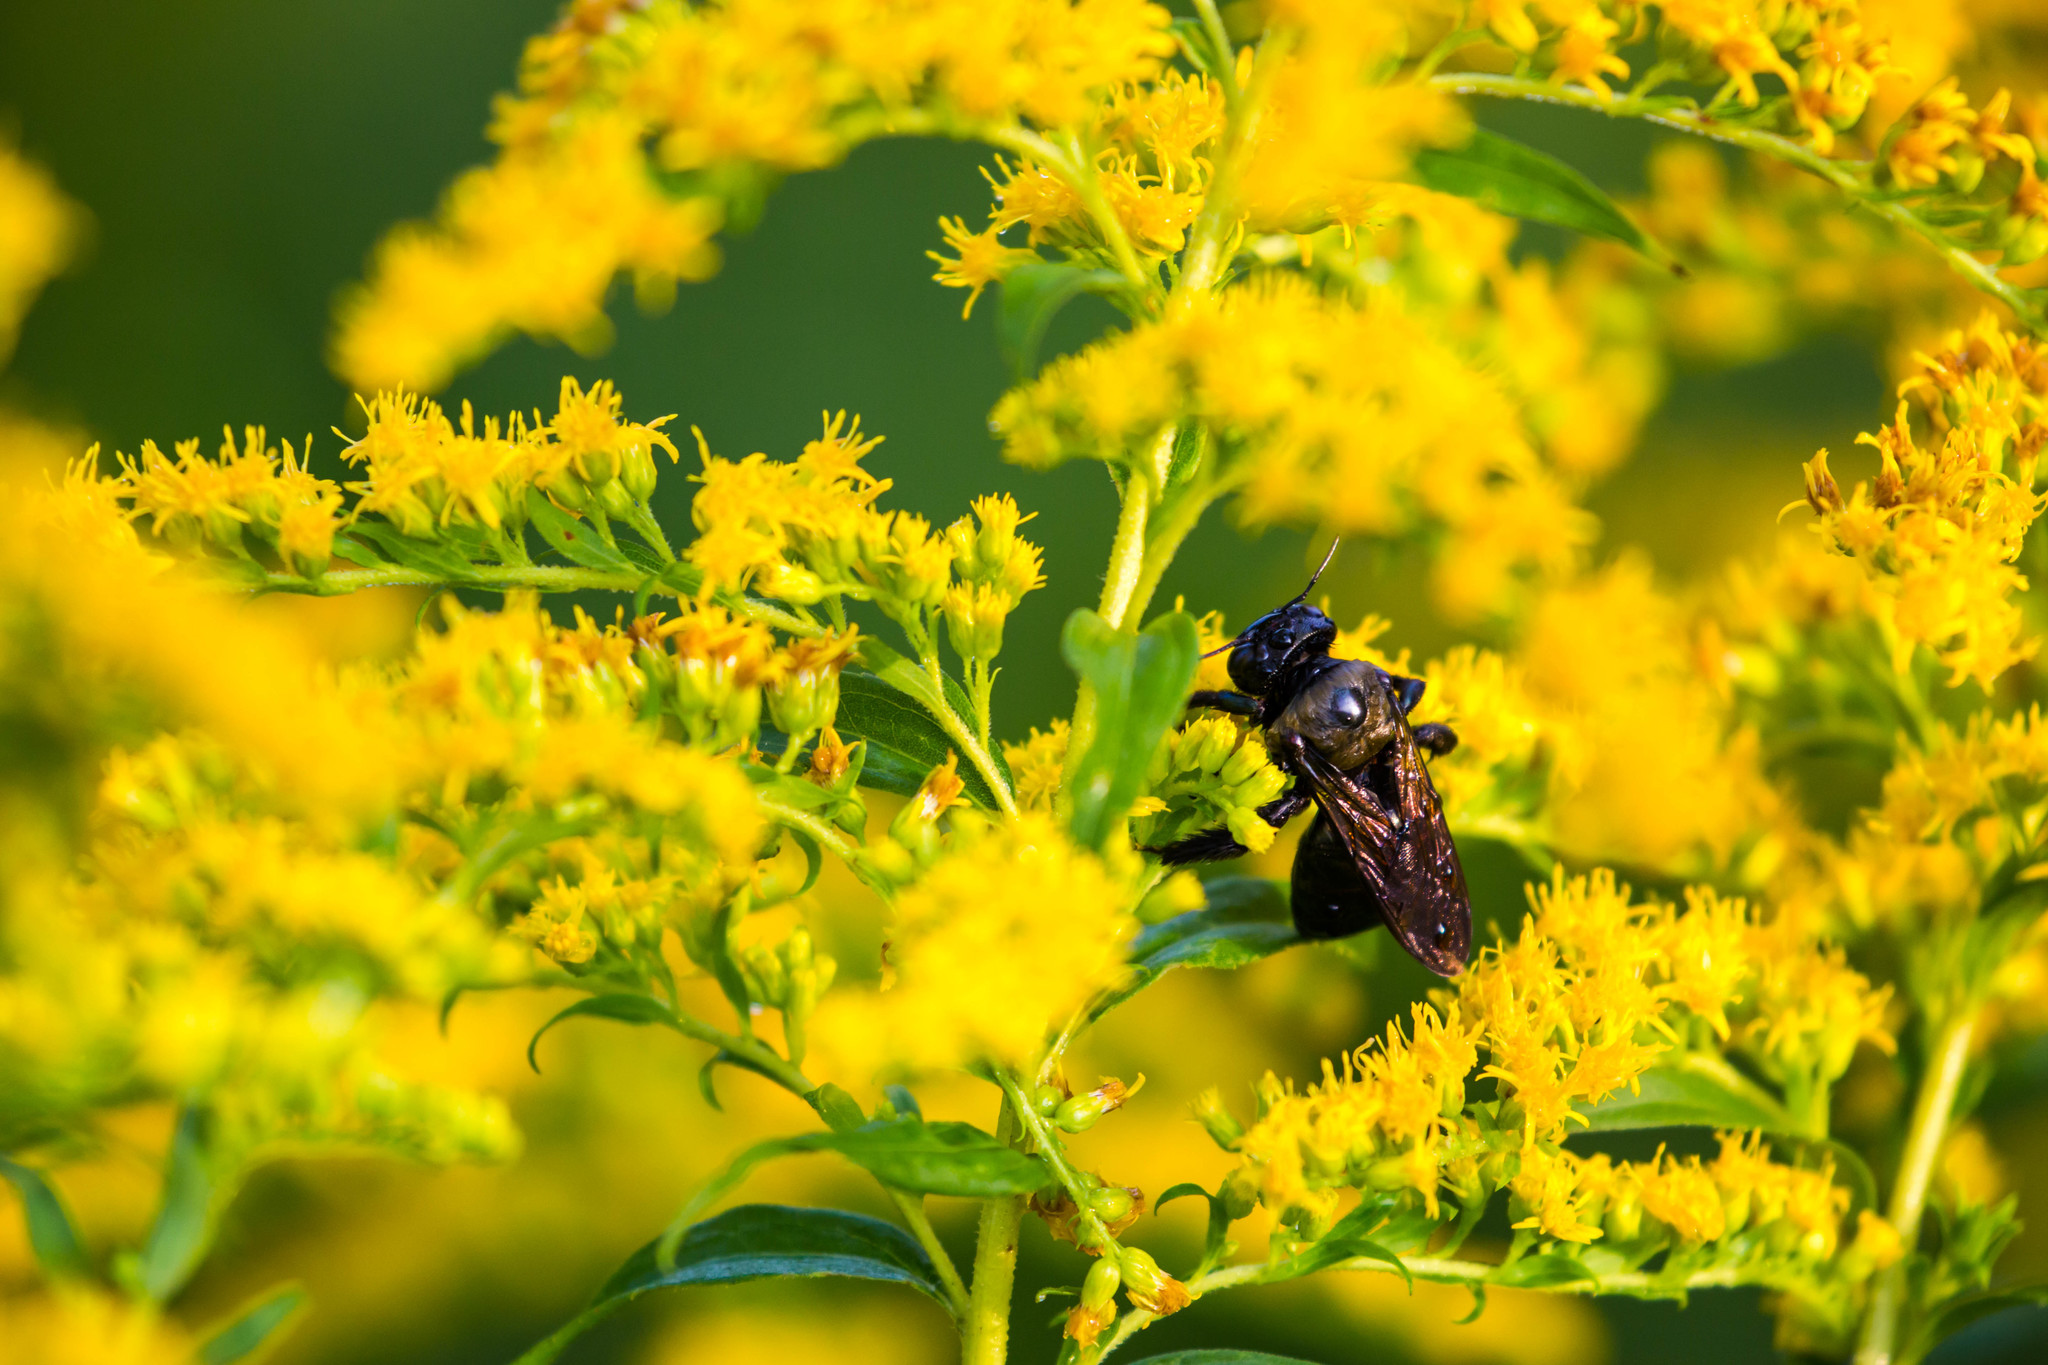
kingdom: Animalia
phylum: Arthropoda
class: Insecta
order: Hymenoptera
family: Apidae
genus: Xylocopa
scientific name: Xylocopa virginica
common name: Carpenter bee
